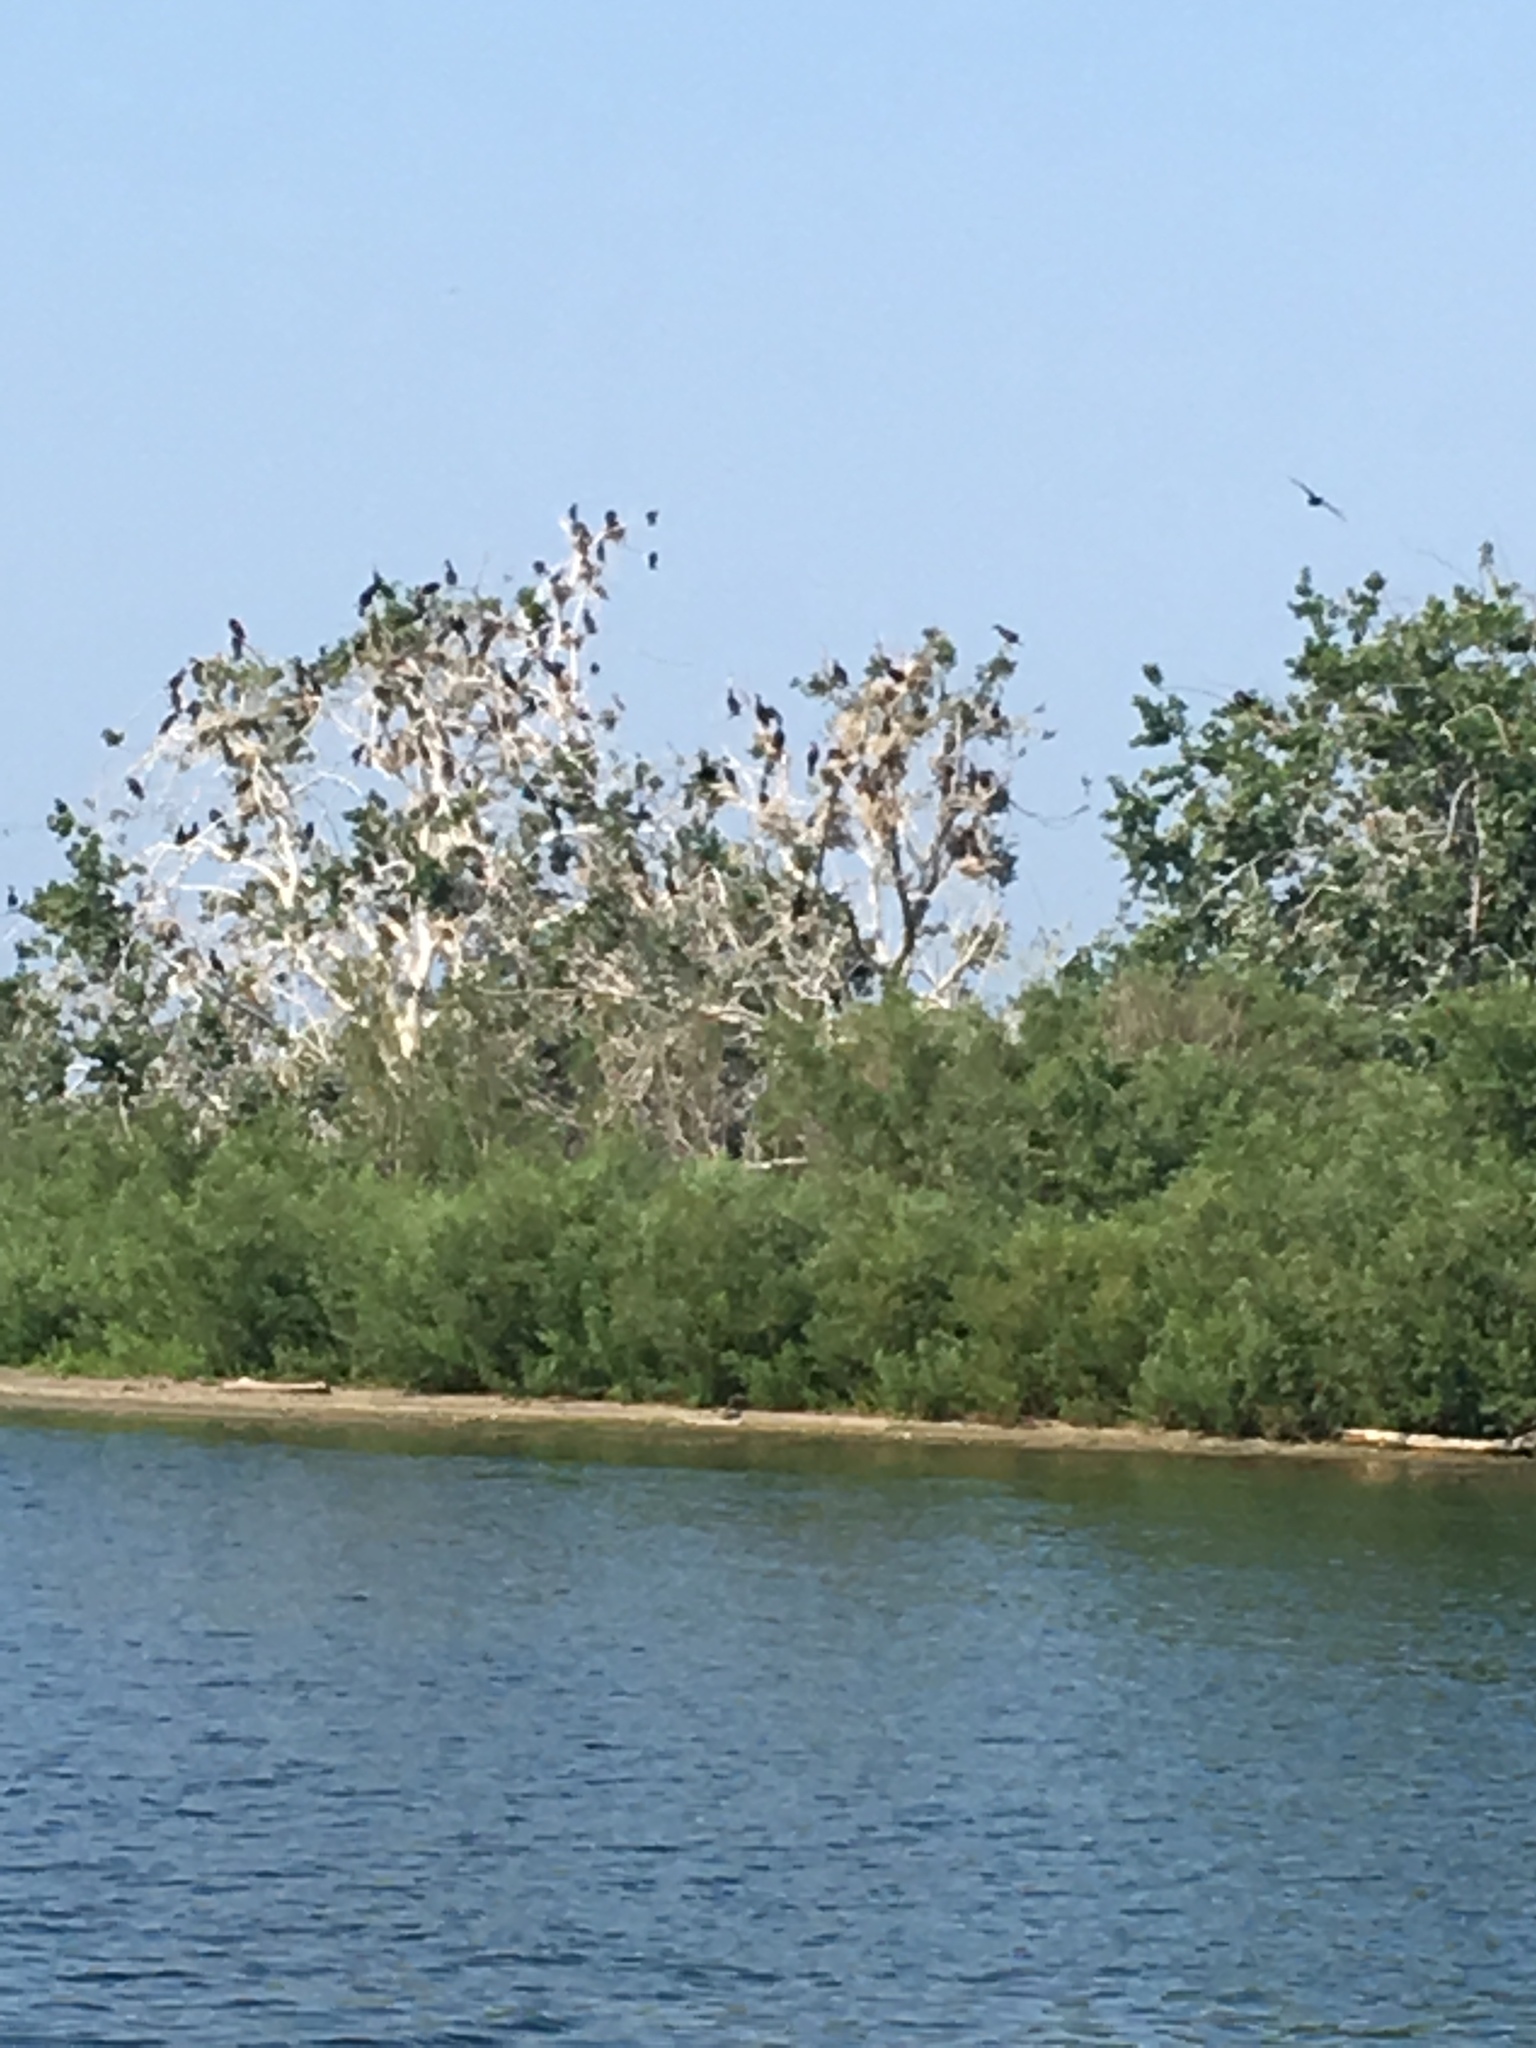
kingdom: Animalia
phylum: Chordata
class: Aves
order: Suliformes
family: Phalacrocoracidae
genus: Phalacrocorax
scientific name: Phalacrocorax auritus
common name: Double-crested cormorant
